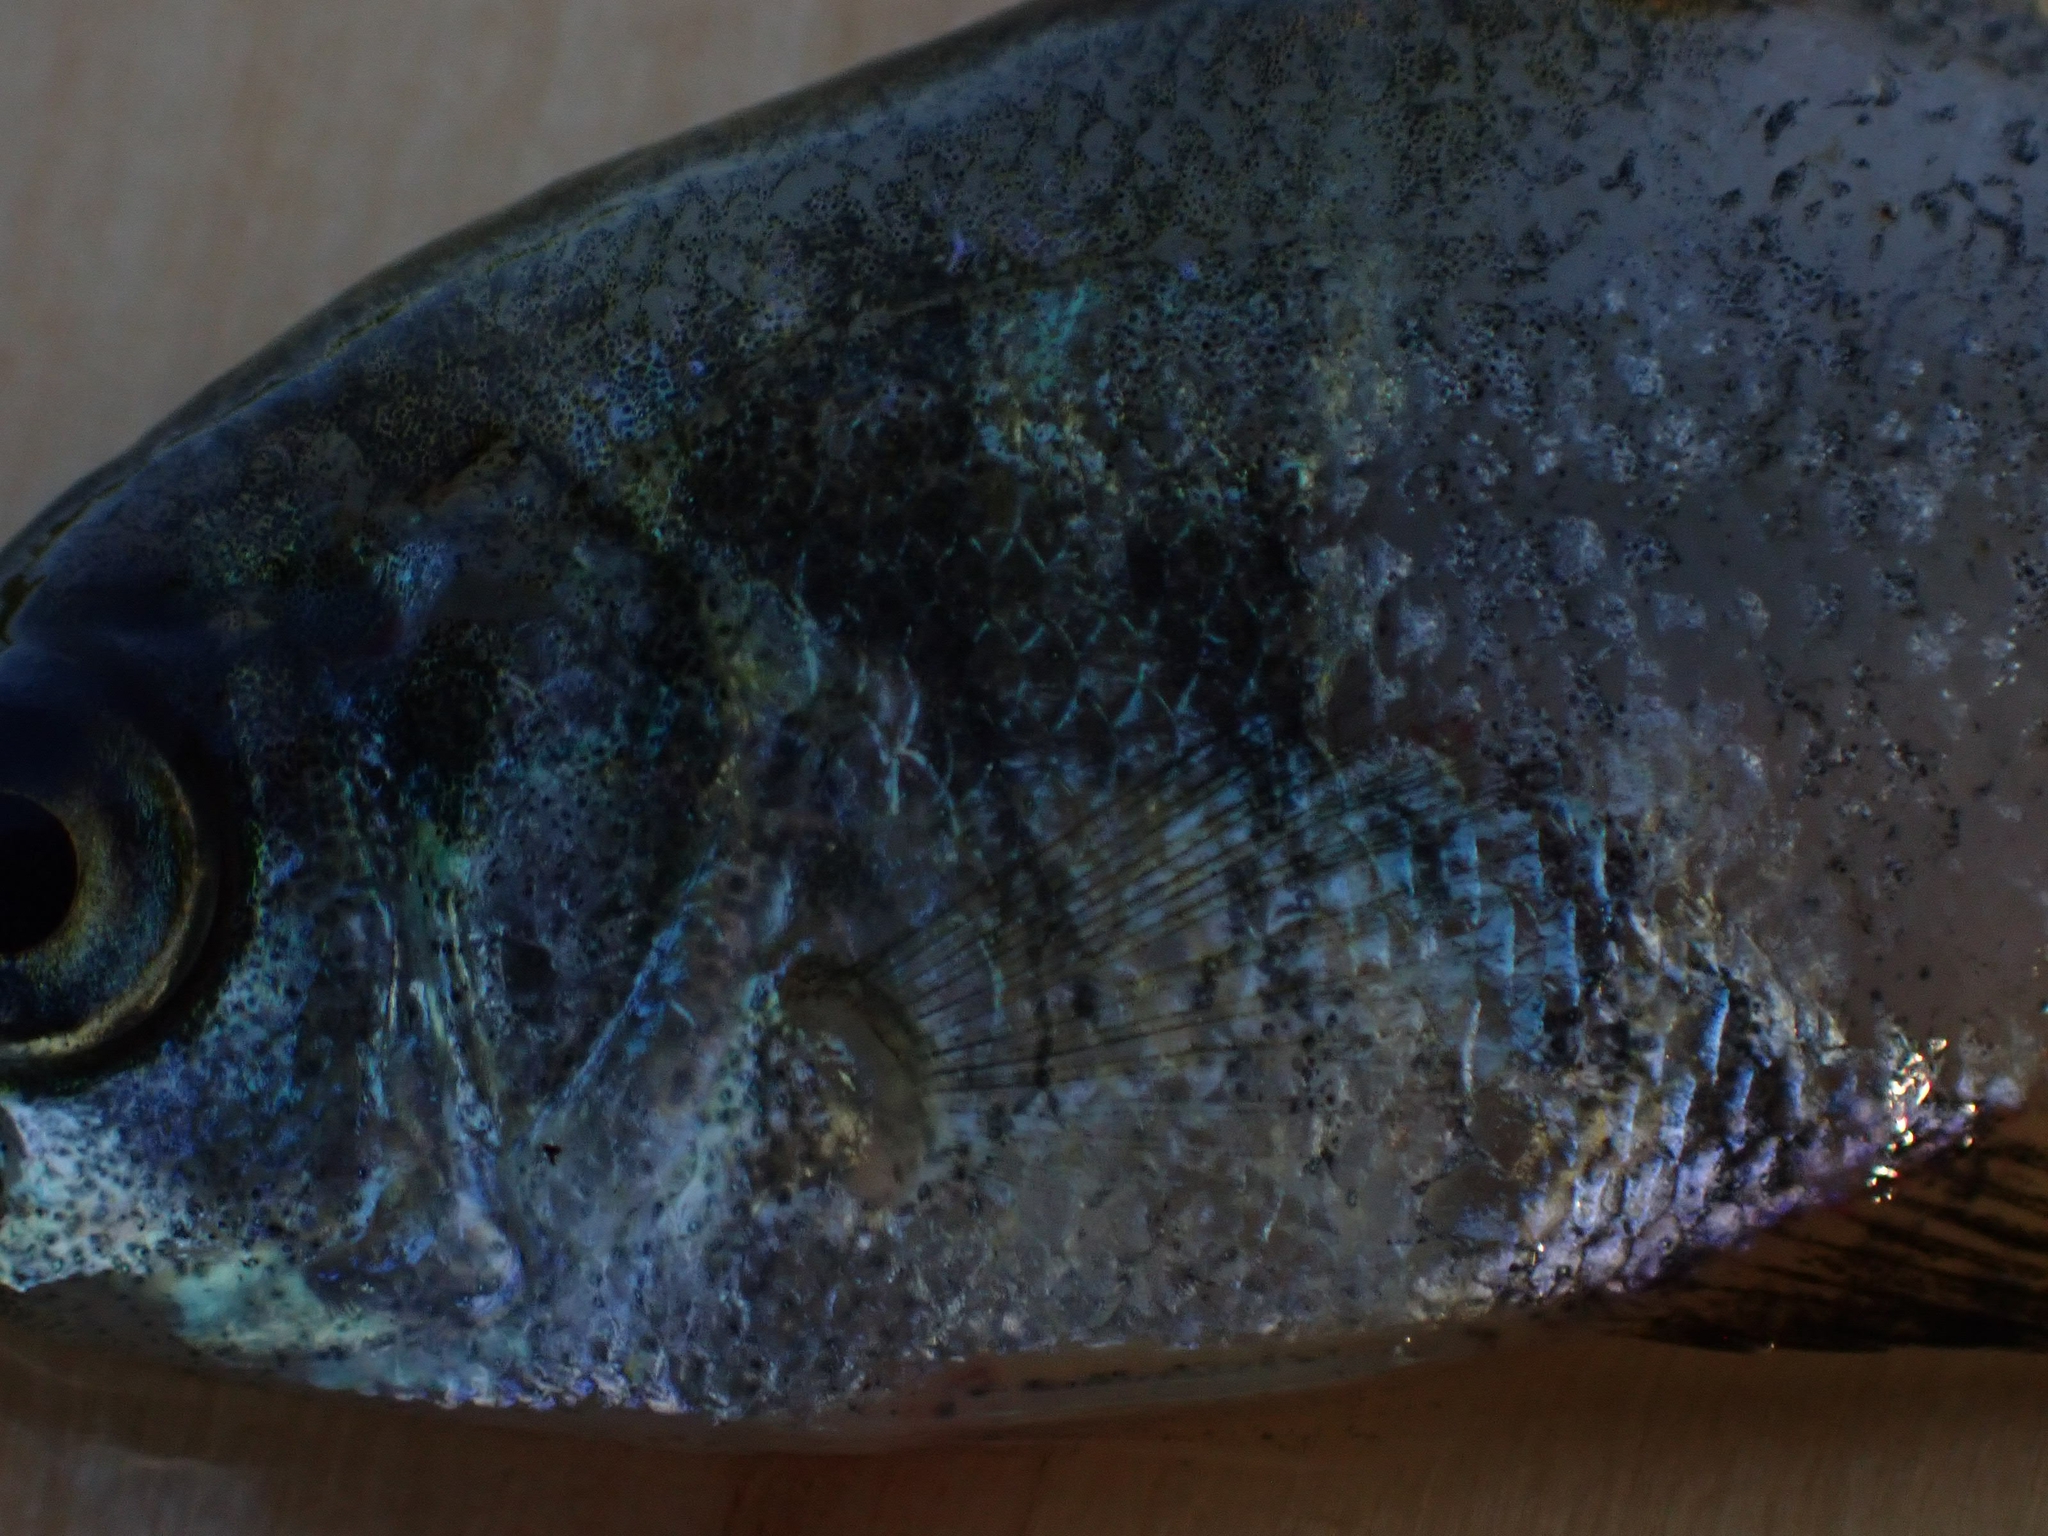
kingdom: Animalia
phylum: Chordata
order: Perciformes
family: Centrarchidae
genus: Pomoxis
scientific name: Pomoxis nigromaculatus
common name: Black crappie
